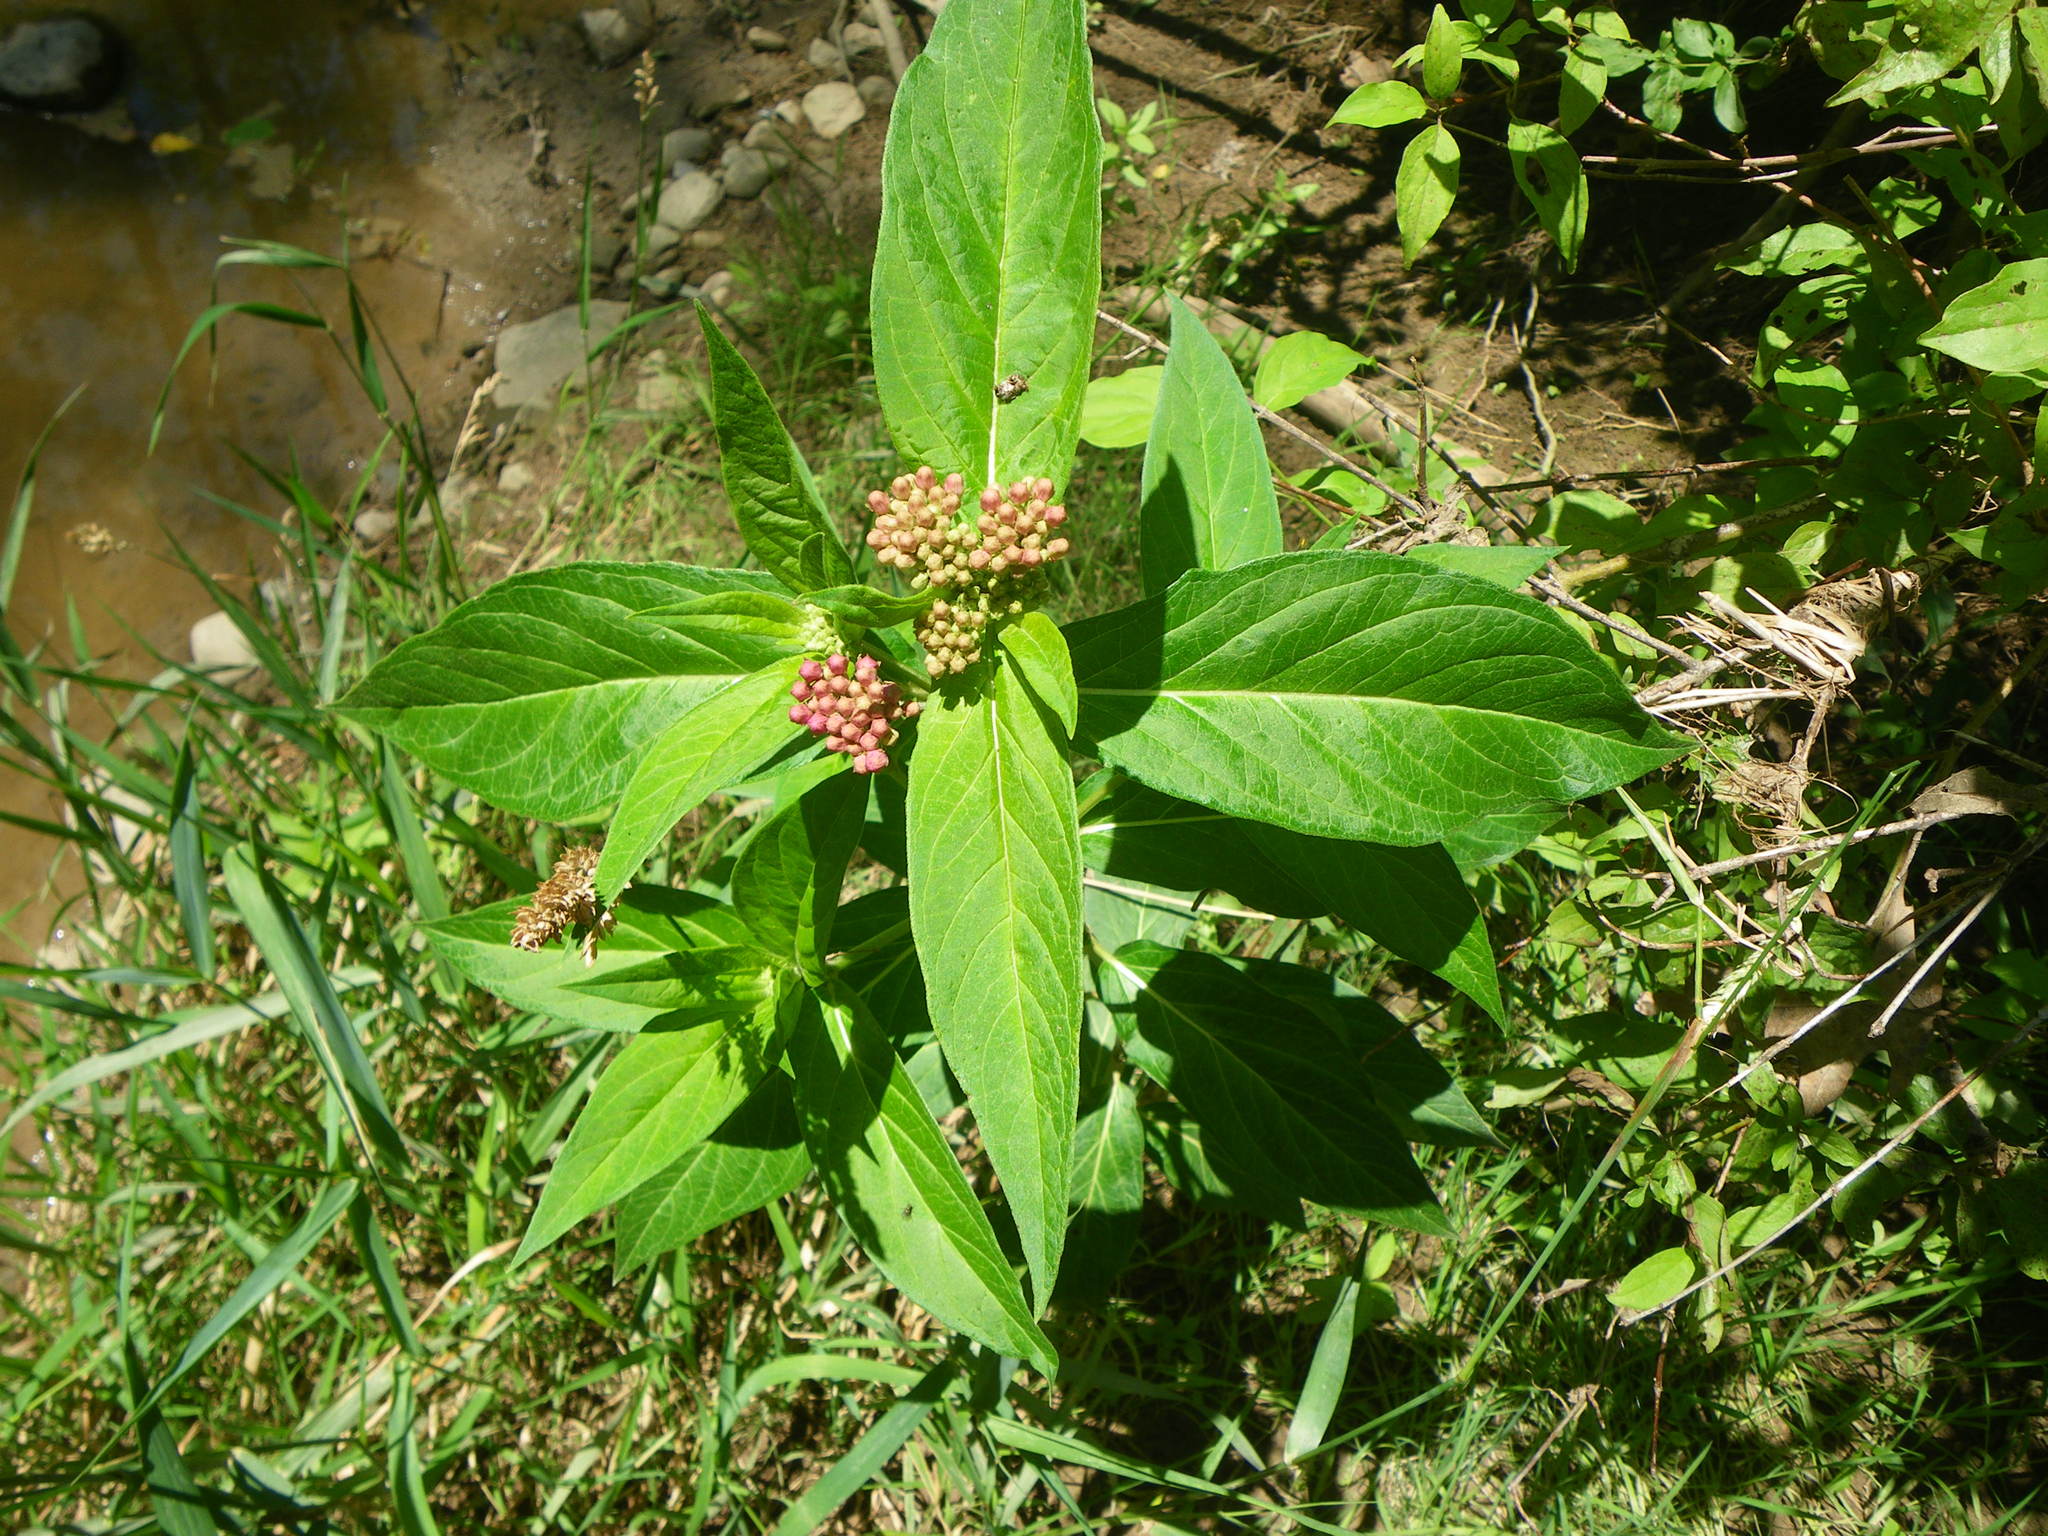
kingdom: Plantae
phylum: Tracheophyta
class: Magnoliopsida
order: Gentianales
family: Apocynaceae
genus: Asclepias
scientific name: Asclepias incarnata
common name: Swamp milkweed
